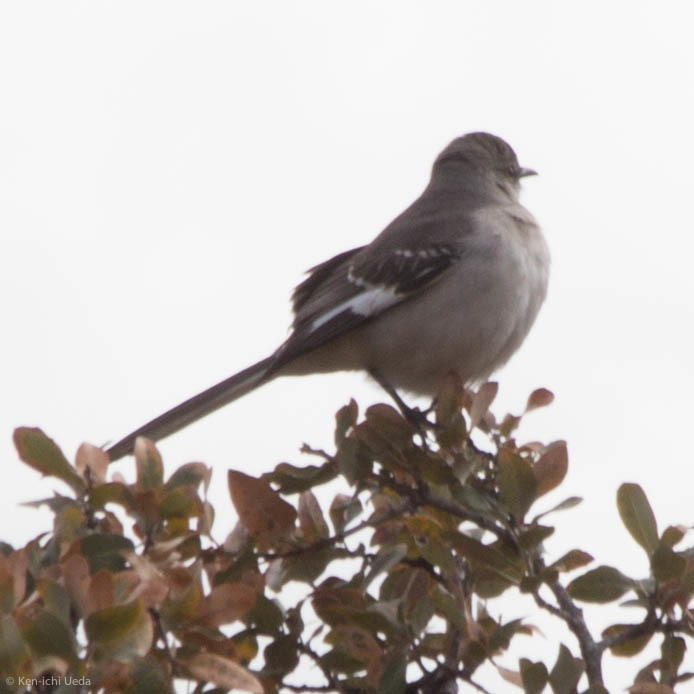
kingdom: Animalia
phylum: Chordata
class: Aves
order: Passeriformes
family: Mimidae
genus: Mimus
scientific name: Mimus polyglottos
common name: Northern mockingbird
